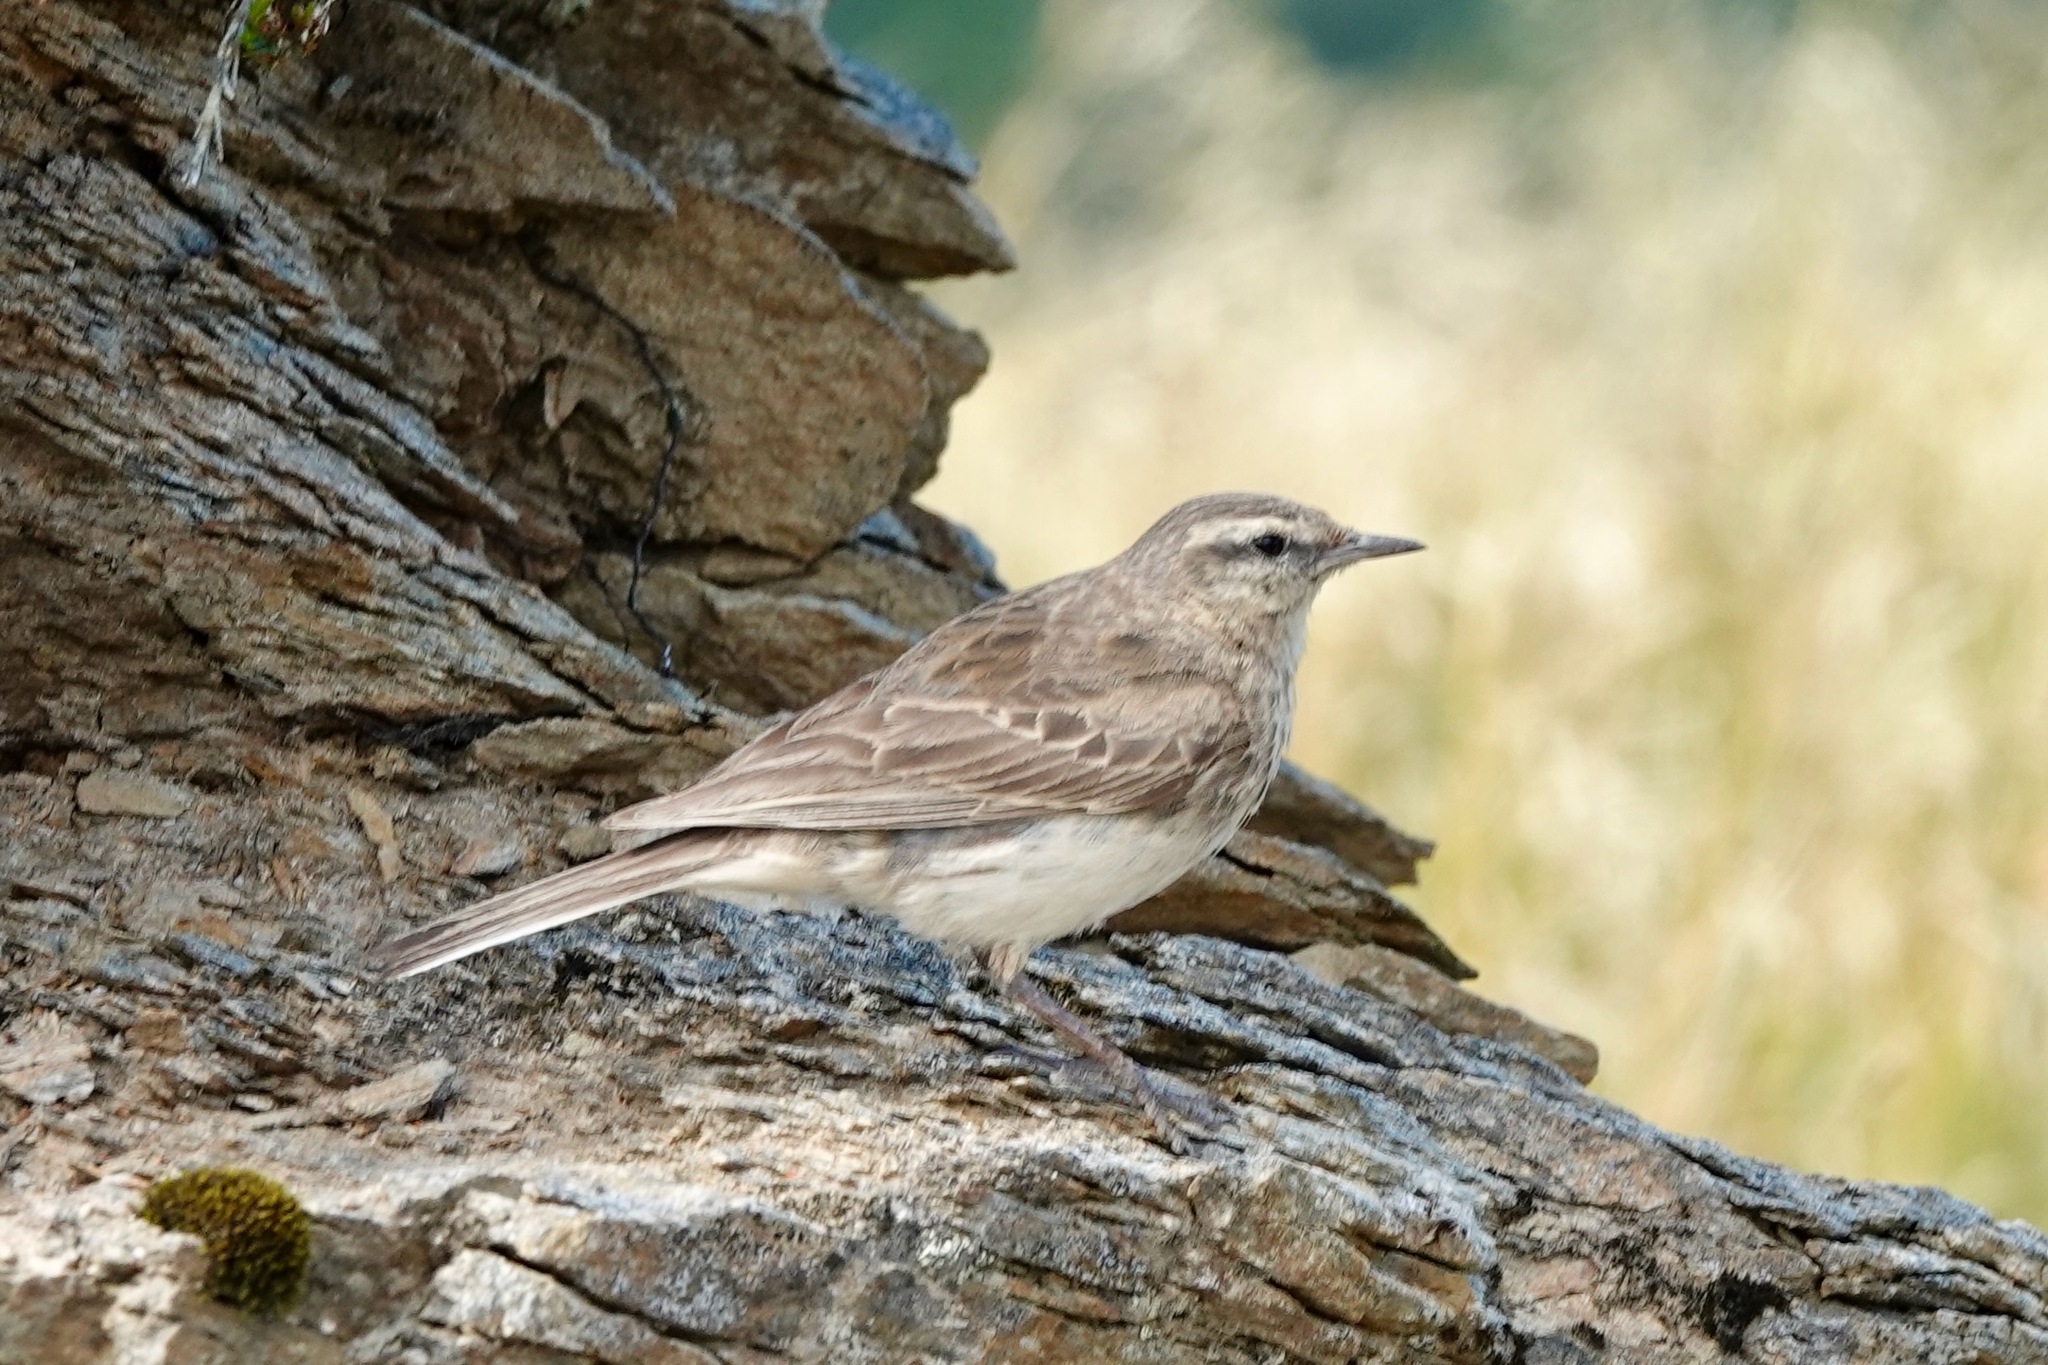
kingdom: Animalia
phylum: Chordata
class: Aves
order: Passeriformes
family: Motacillidae
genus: Anthus
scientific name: Anthus novaeseelandiae
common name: New zealand pipit
